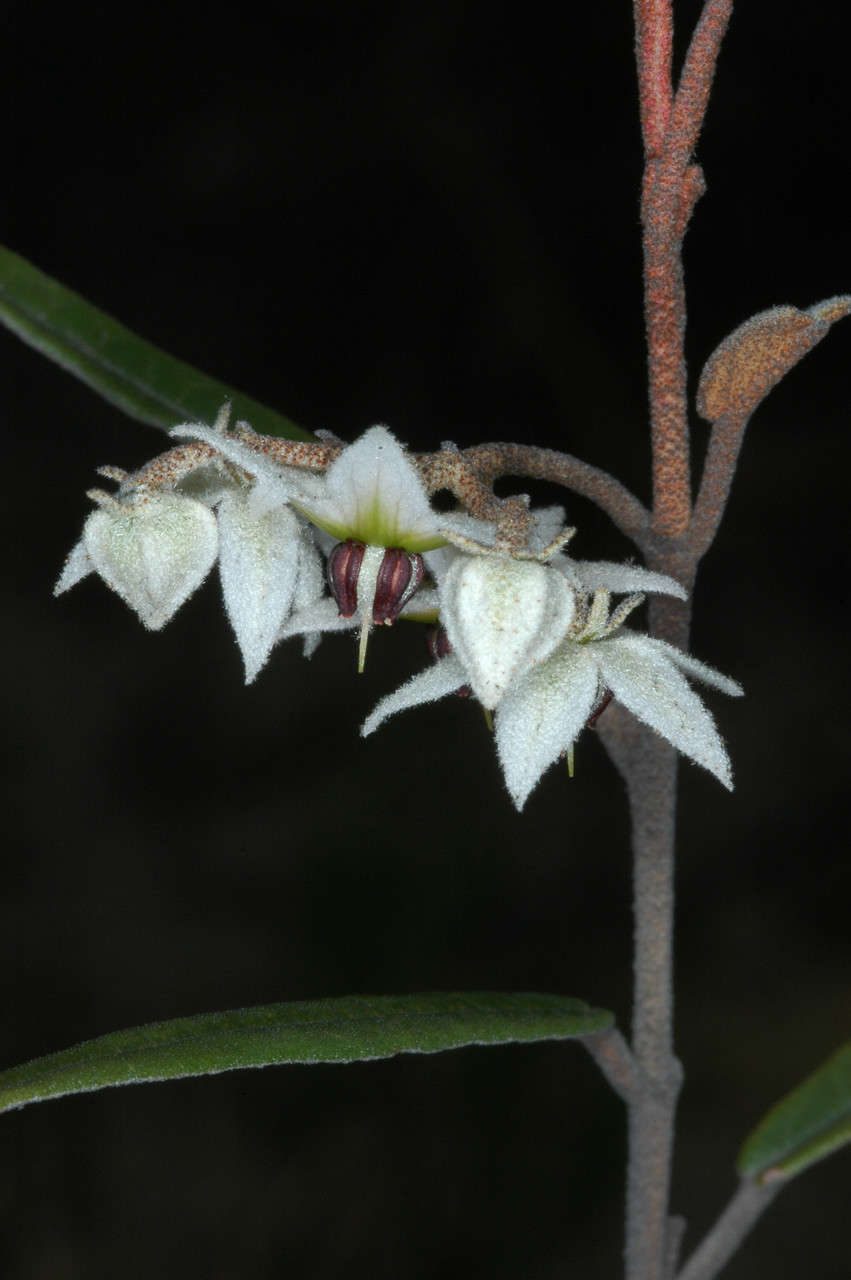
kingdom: Plantae
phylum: Tracheophyta
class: Magnoliopsida
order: Malvales
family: Malvaceae
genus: Lasiopetalum
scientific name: Lasiopetalum behrii
